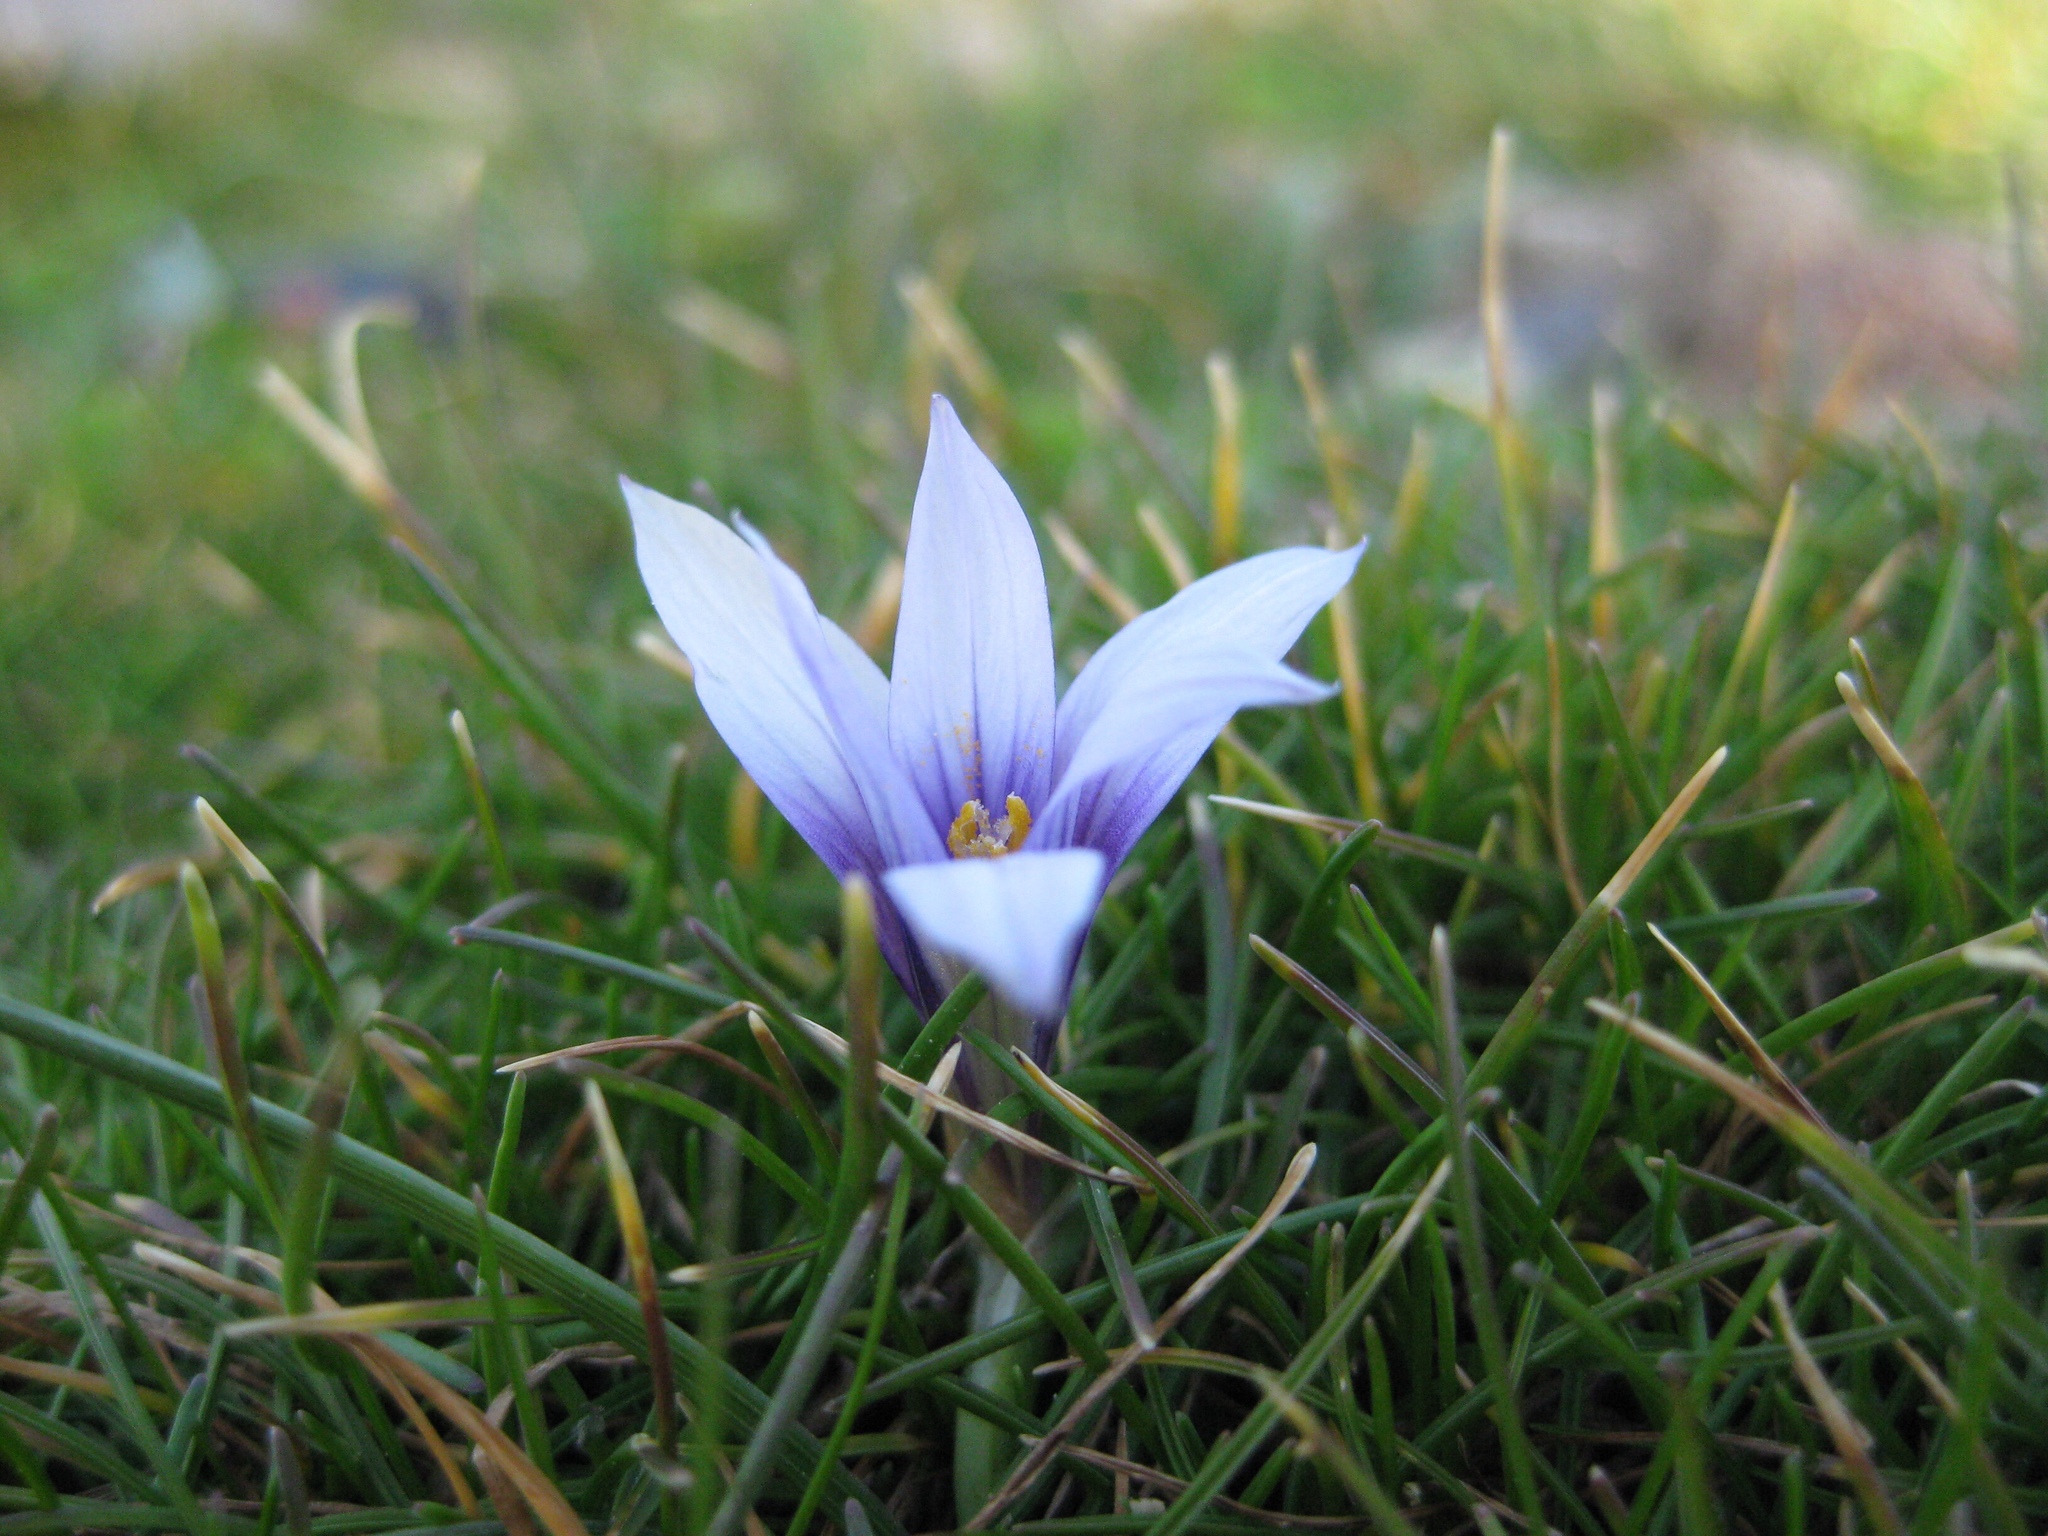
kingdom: Plantae
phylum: Tracheophyta
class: Liliopsida
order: Asparagales
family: Iridaceae
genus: Romulea
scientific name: Romulea linaresii
